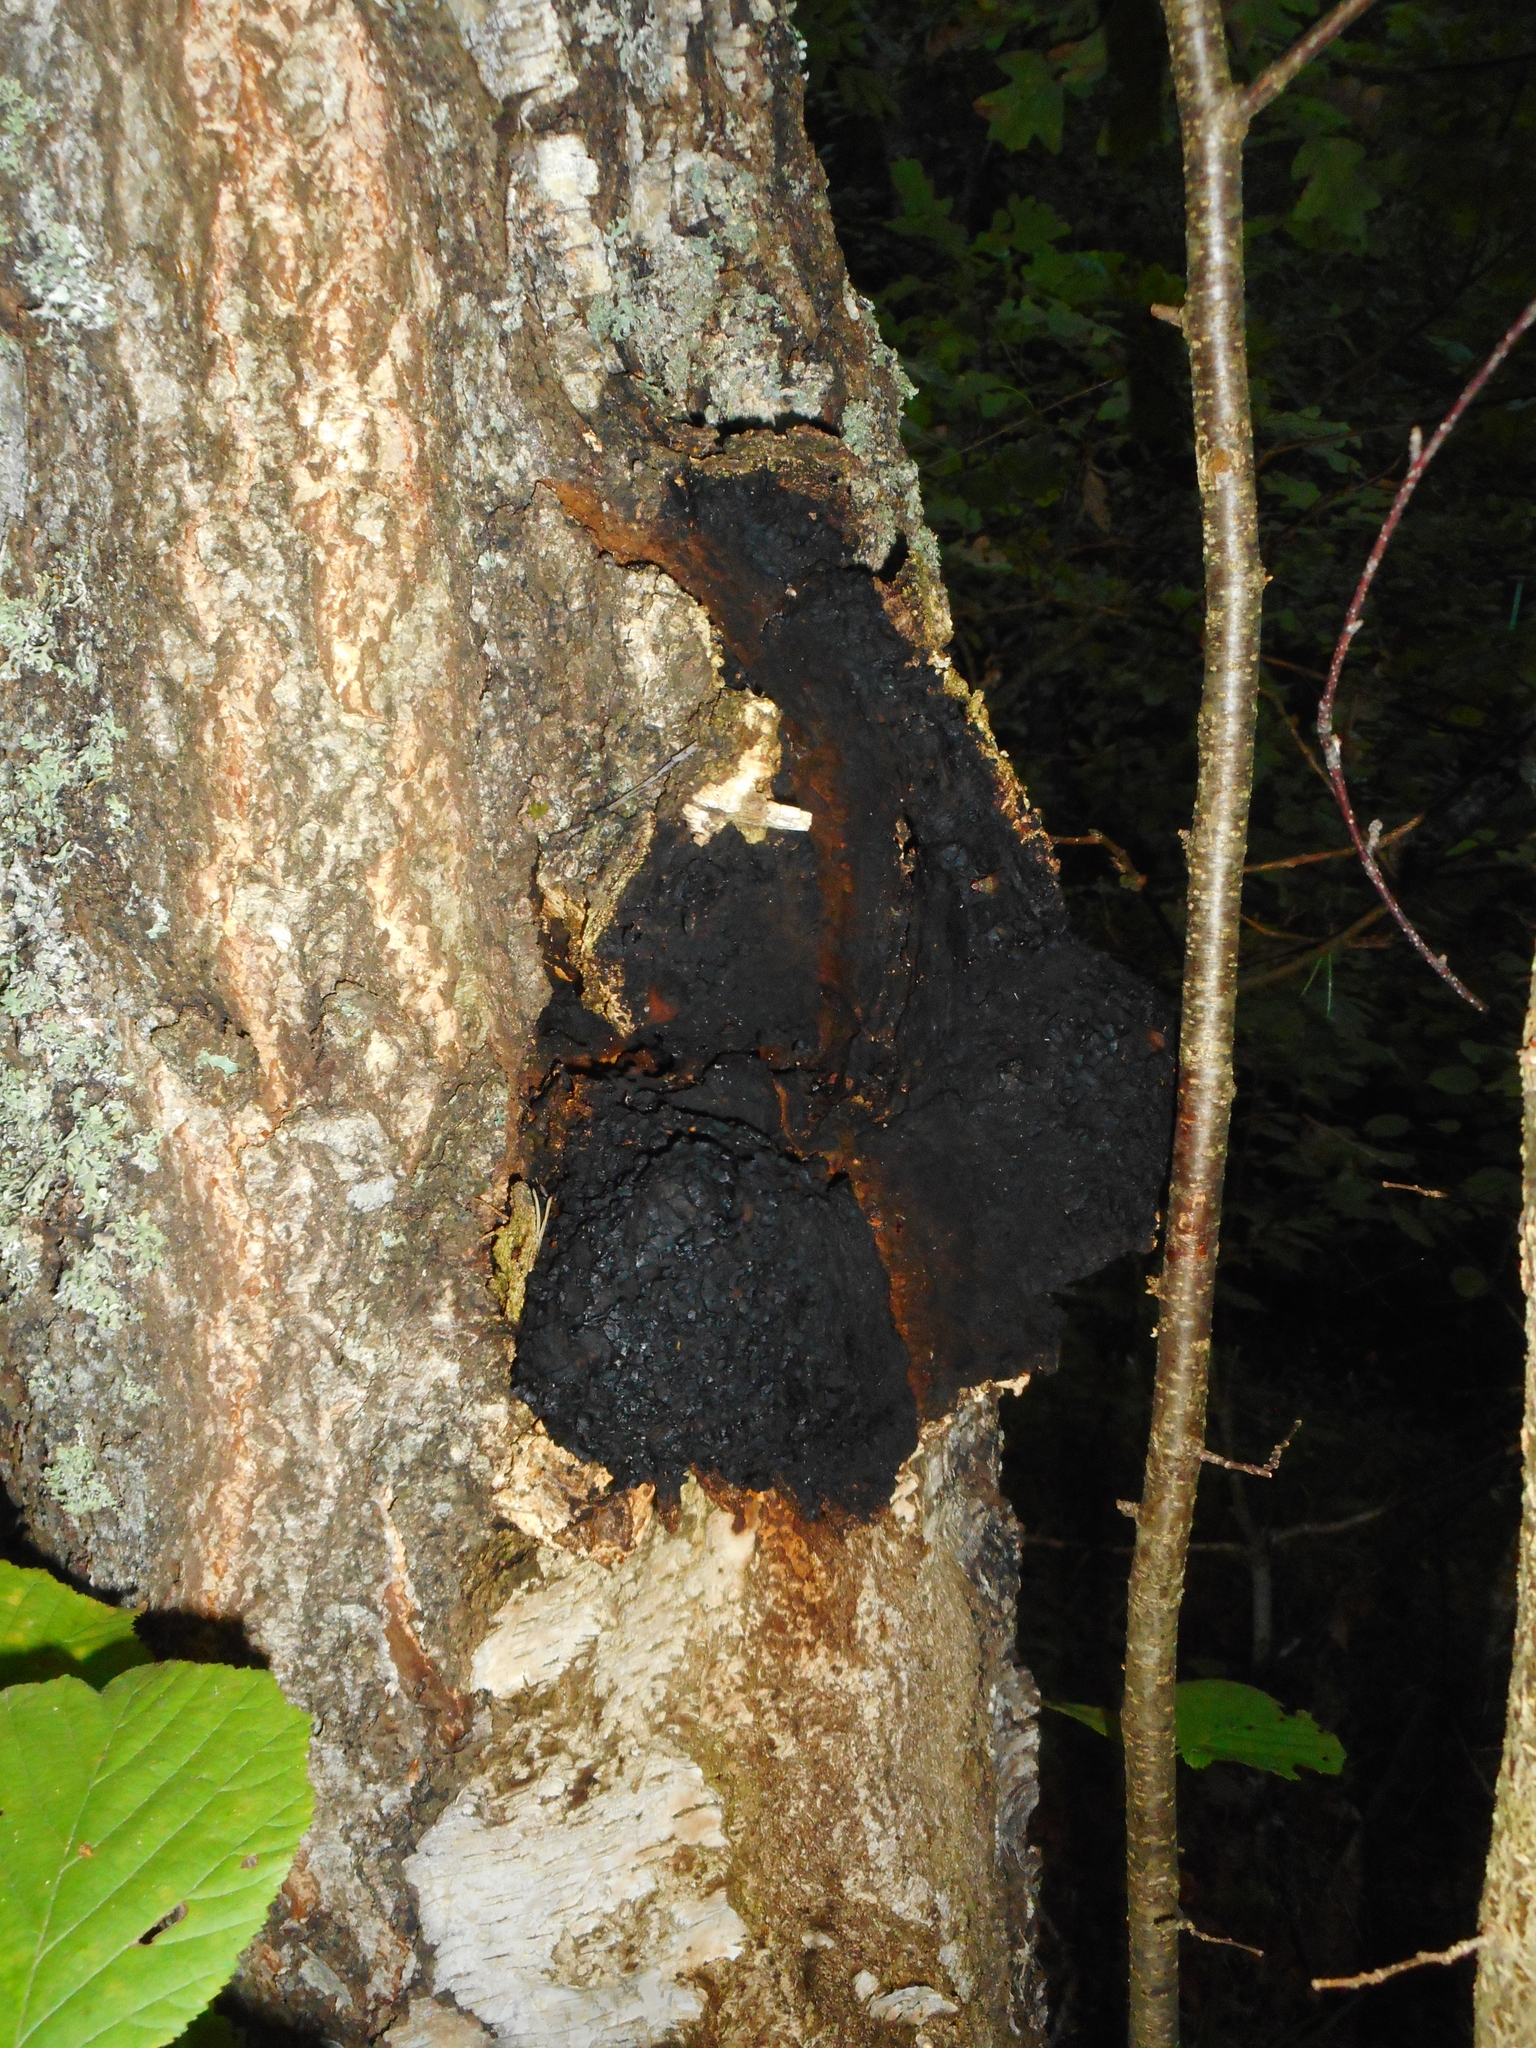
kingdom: Fungi
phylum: Basidiomycota
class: Agaricomycetes
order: Hymenochaetales
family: Hymenochaetaceae
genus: Inonotus
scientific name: Inonotus obliquus
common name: Chaga
